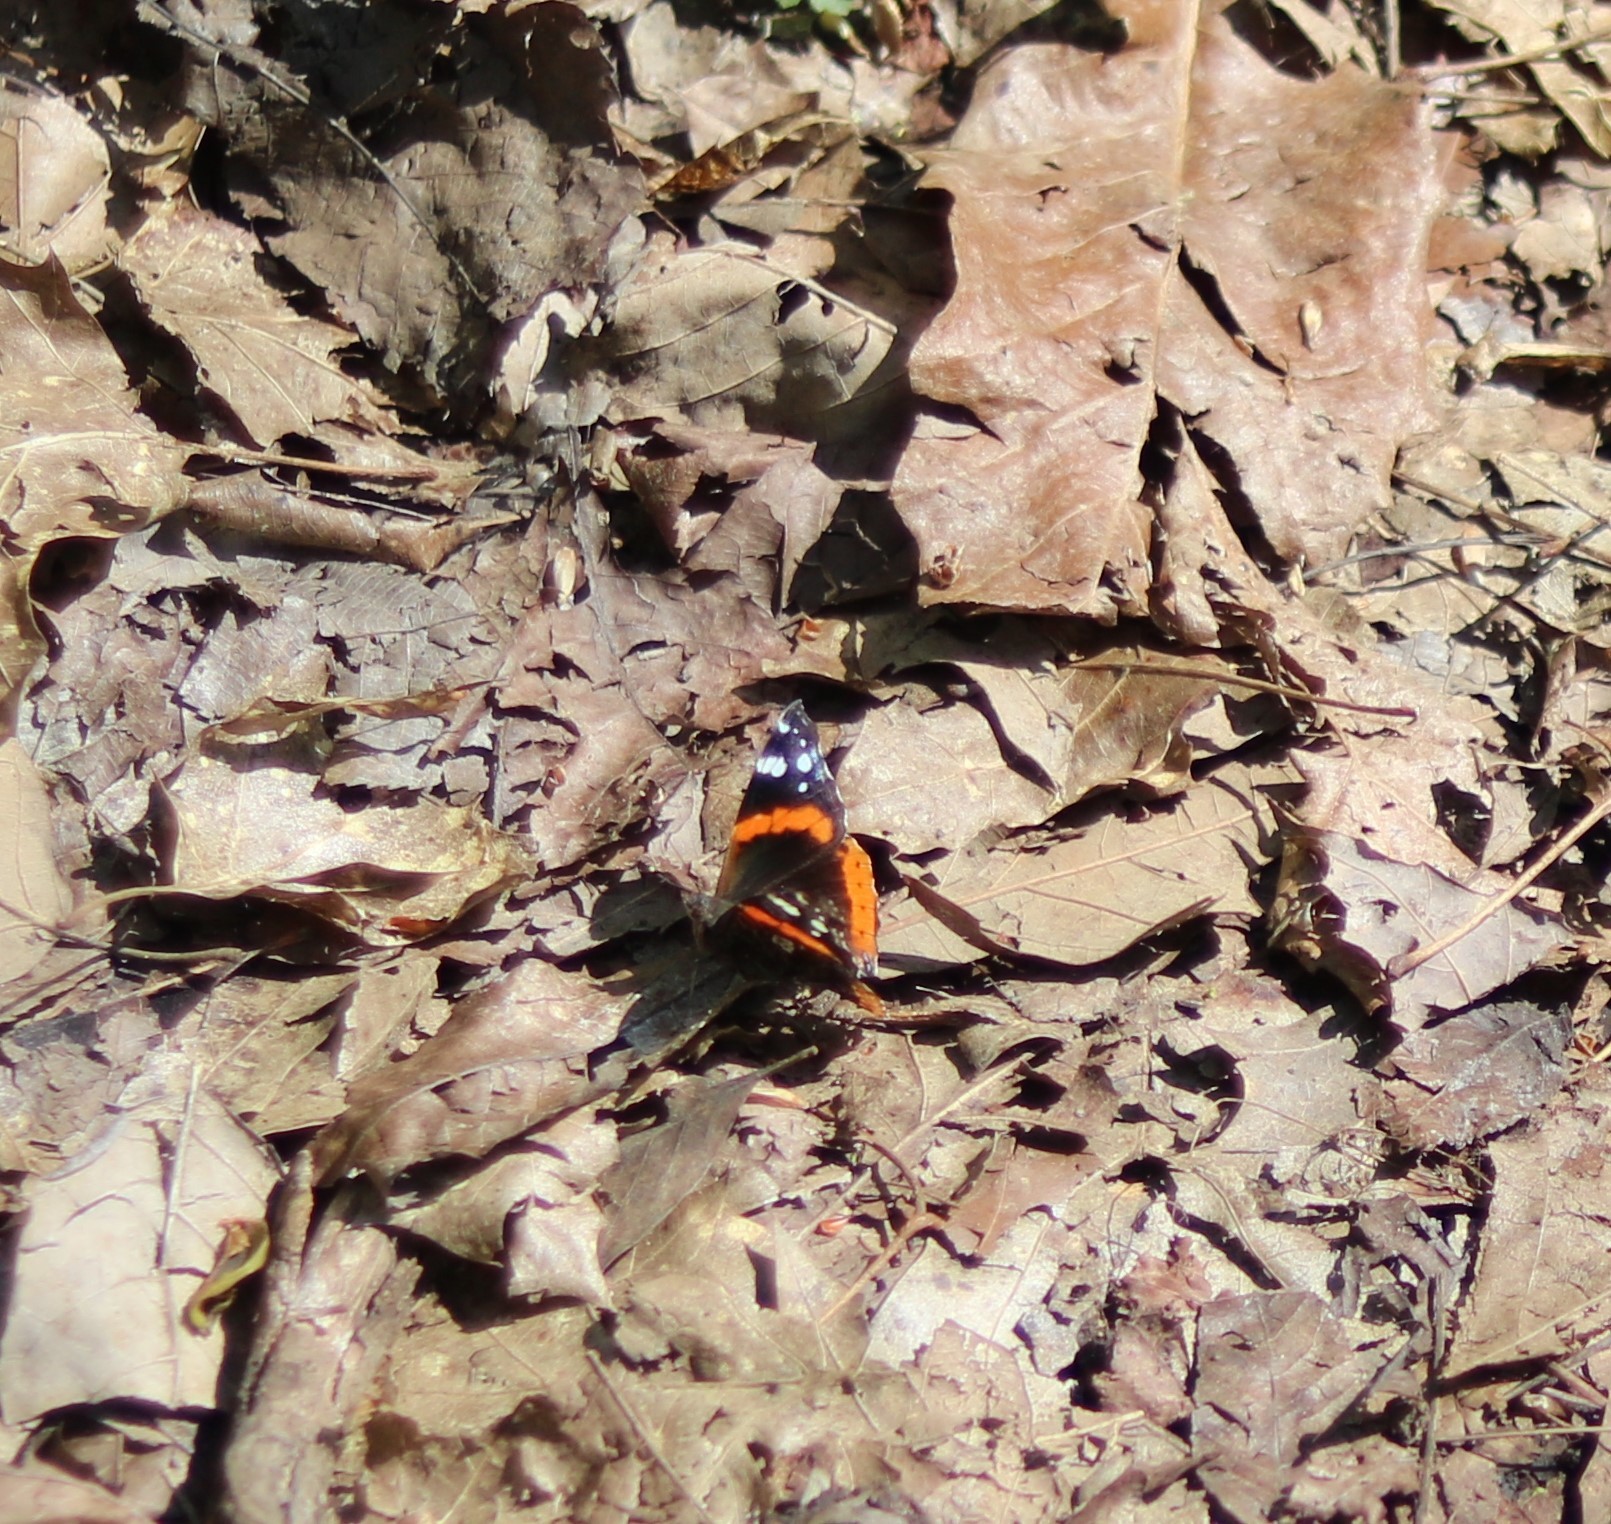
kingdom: Animalia
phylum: Arthropoda
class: Insecta
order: Lepidoptera
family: Nymphalidae
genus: Vanessa
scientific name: Vanessa atalanta
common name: Red admiral
